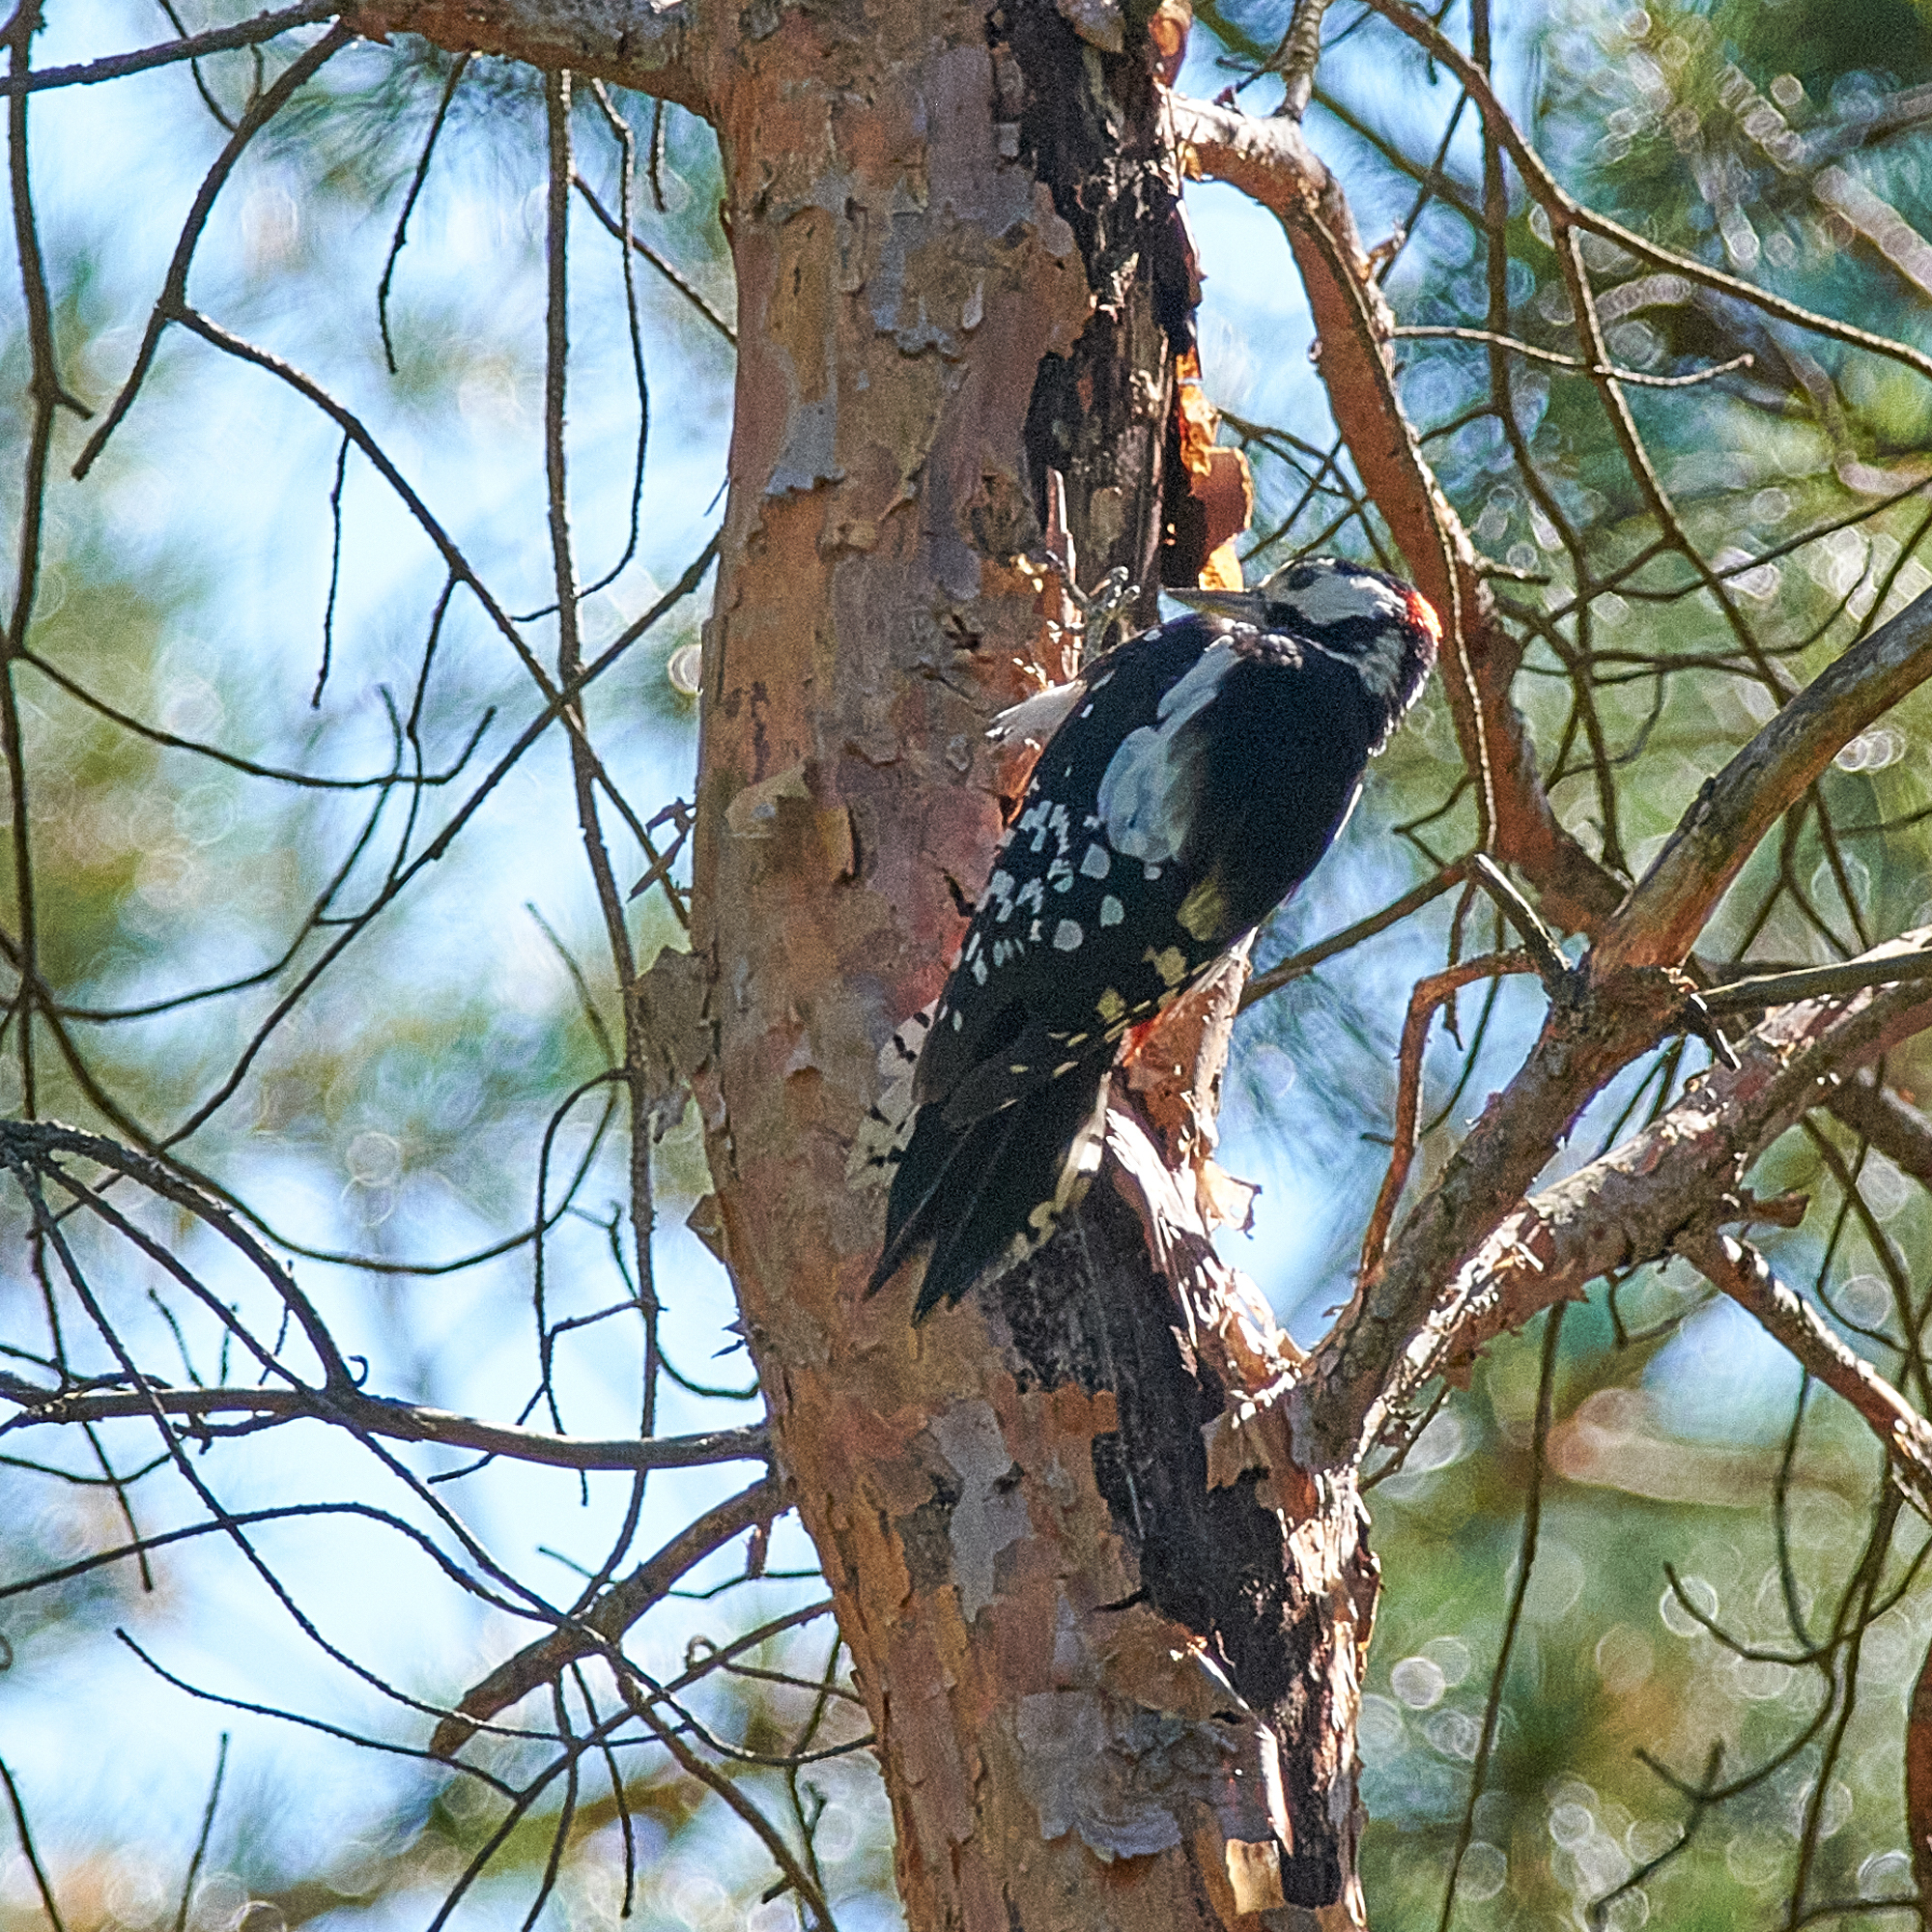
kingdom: Animalia
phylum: Chordata
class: Aves
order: Piciformes
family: Picidae
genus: Dendrocopos
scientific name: Dendrocopos major
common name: Great spotted woodpecker
